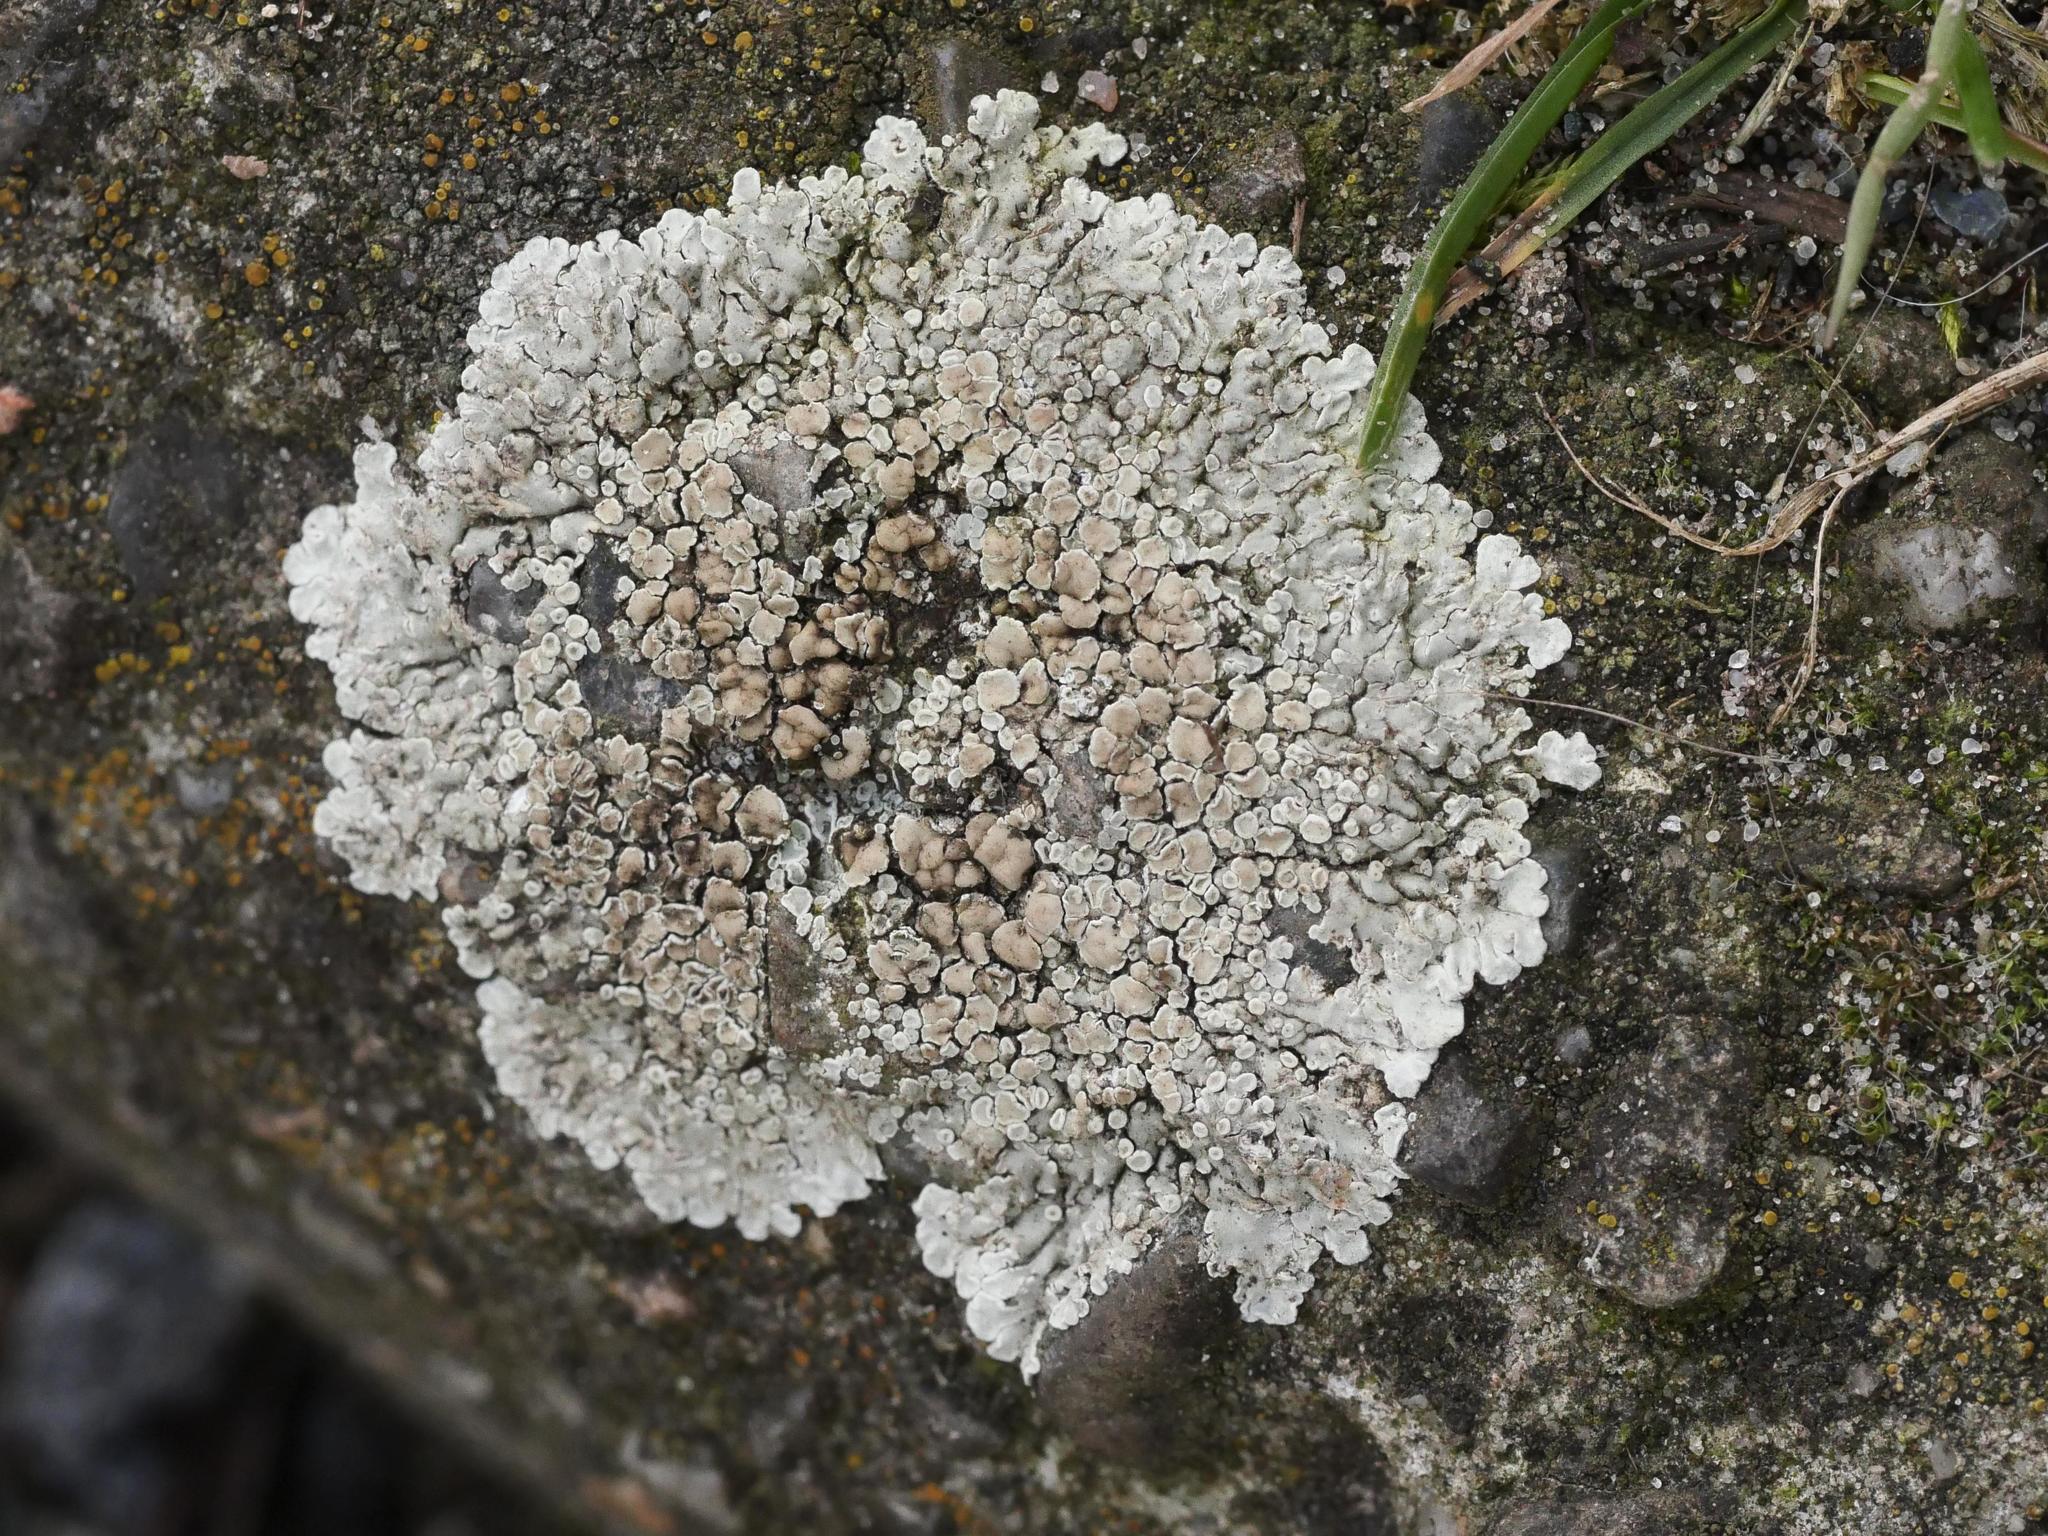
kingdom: Fungi
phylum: Ascomycota
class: Lecanoromycetes
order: Lecanorales
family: Lecanoraceae
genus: Protoparmeliopsis
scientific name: Protoparmeliopsis muralis
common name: Stonewall rim lichen
